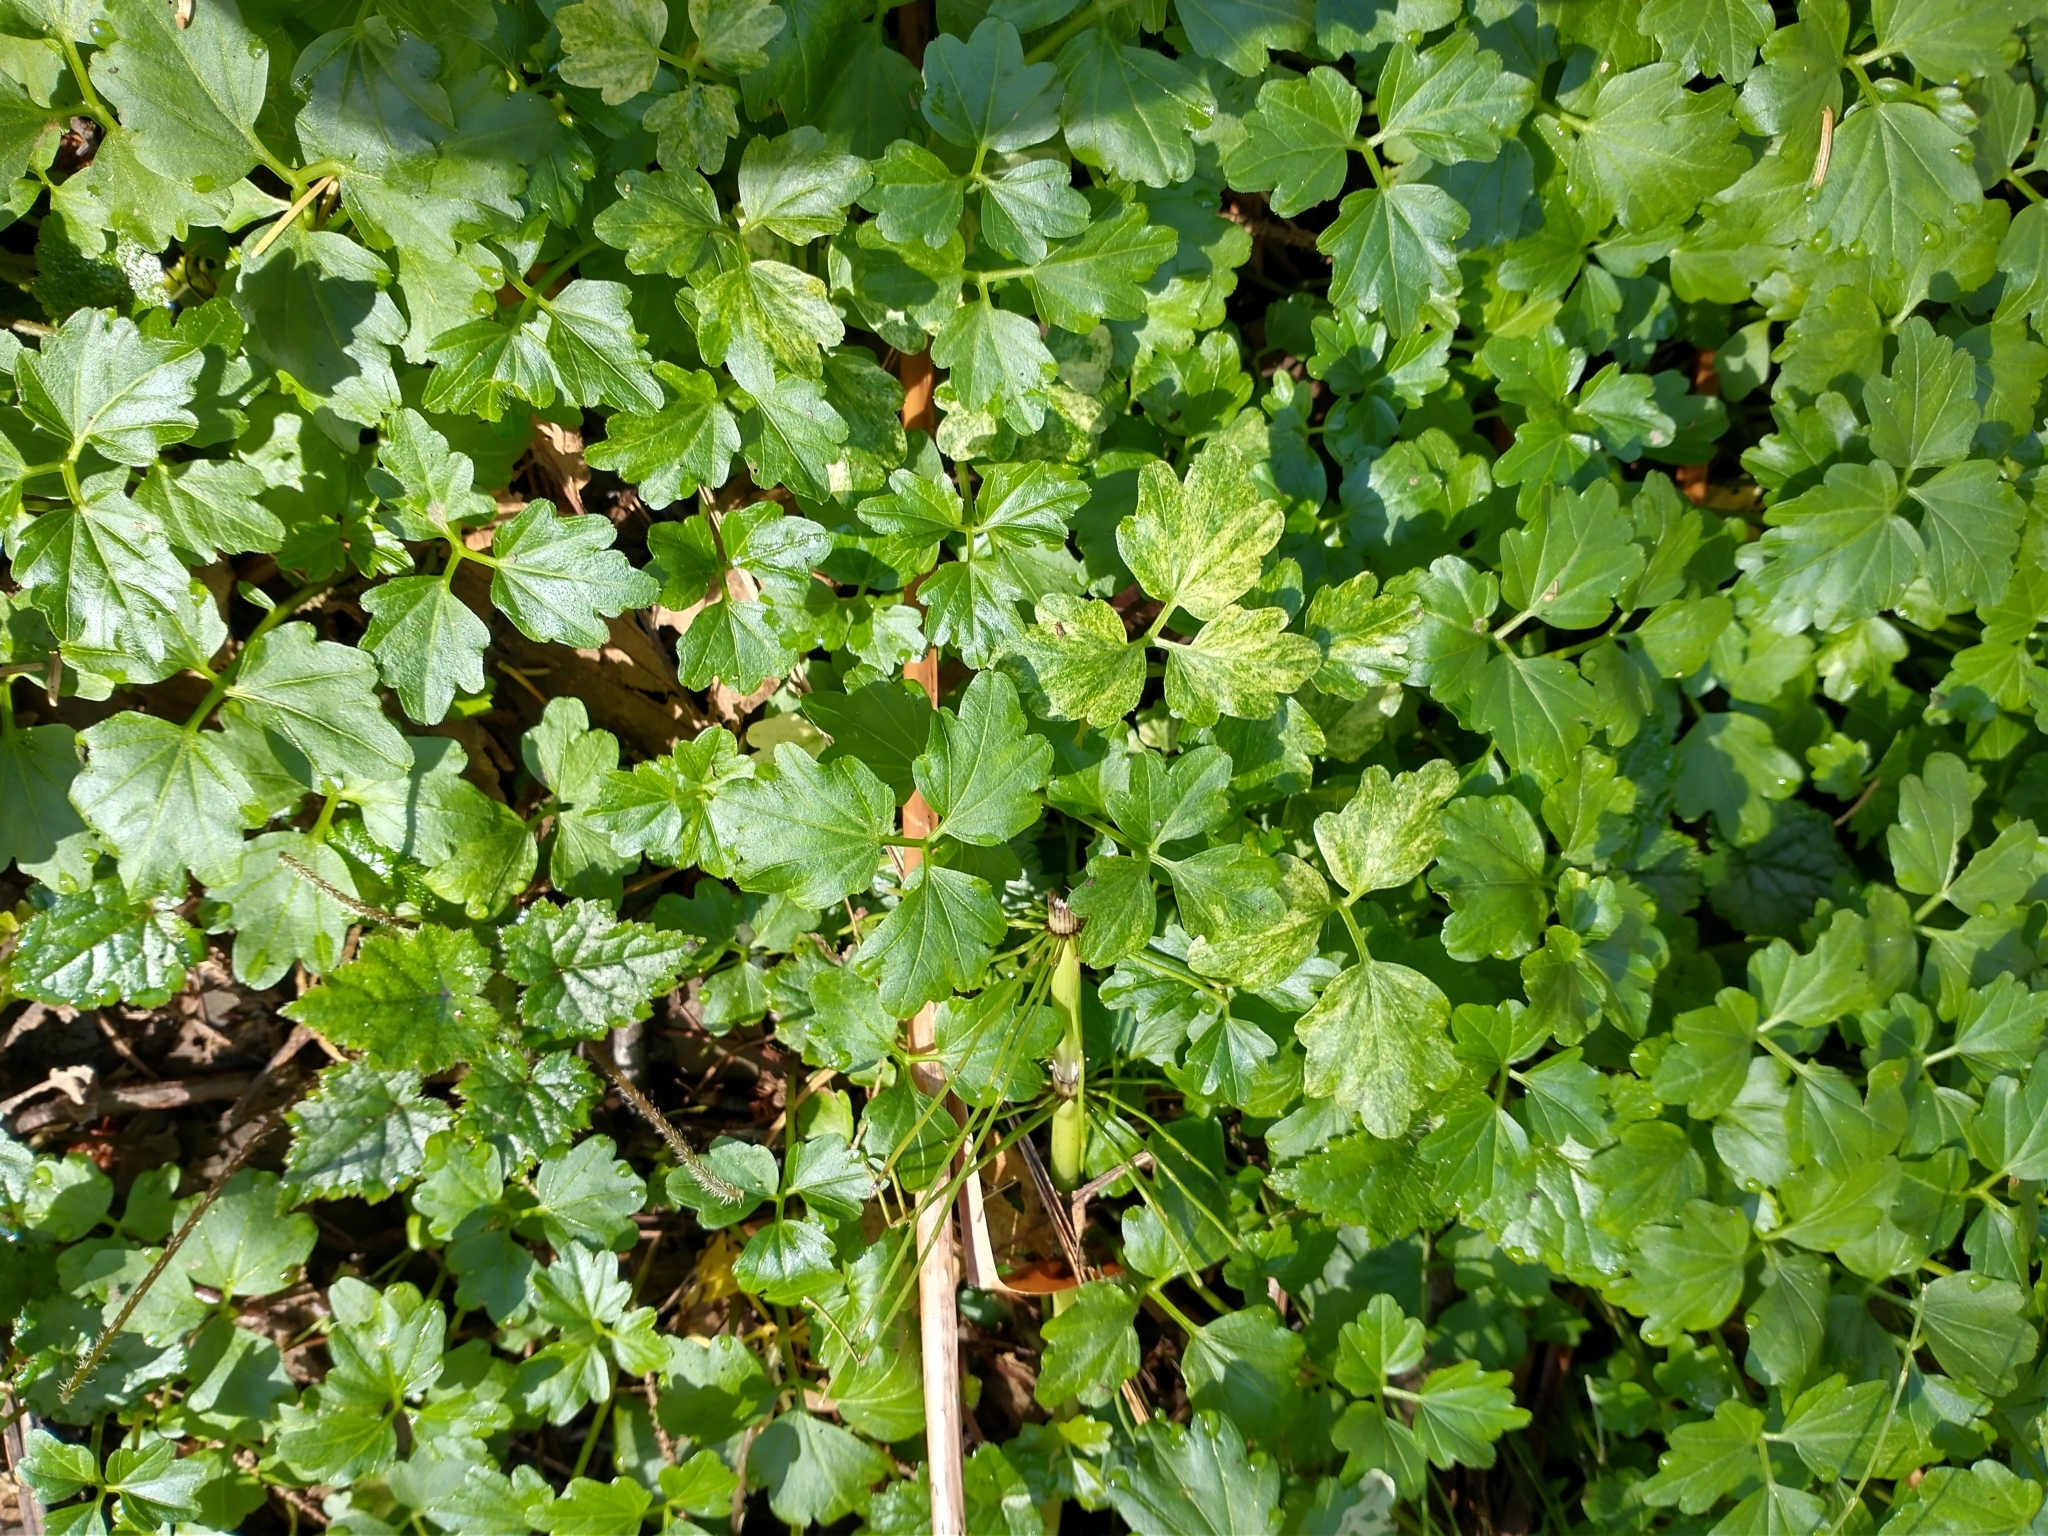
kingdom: Plantae
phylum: Tracheophyta
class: Magnoliopsida
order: Brassicales
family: Brassicaceae
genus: Cardamine
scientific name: Cardamine angulata
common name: Angled bittercress
